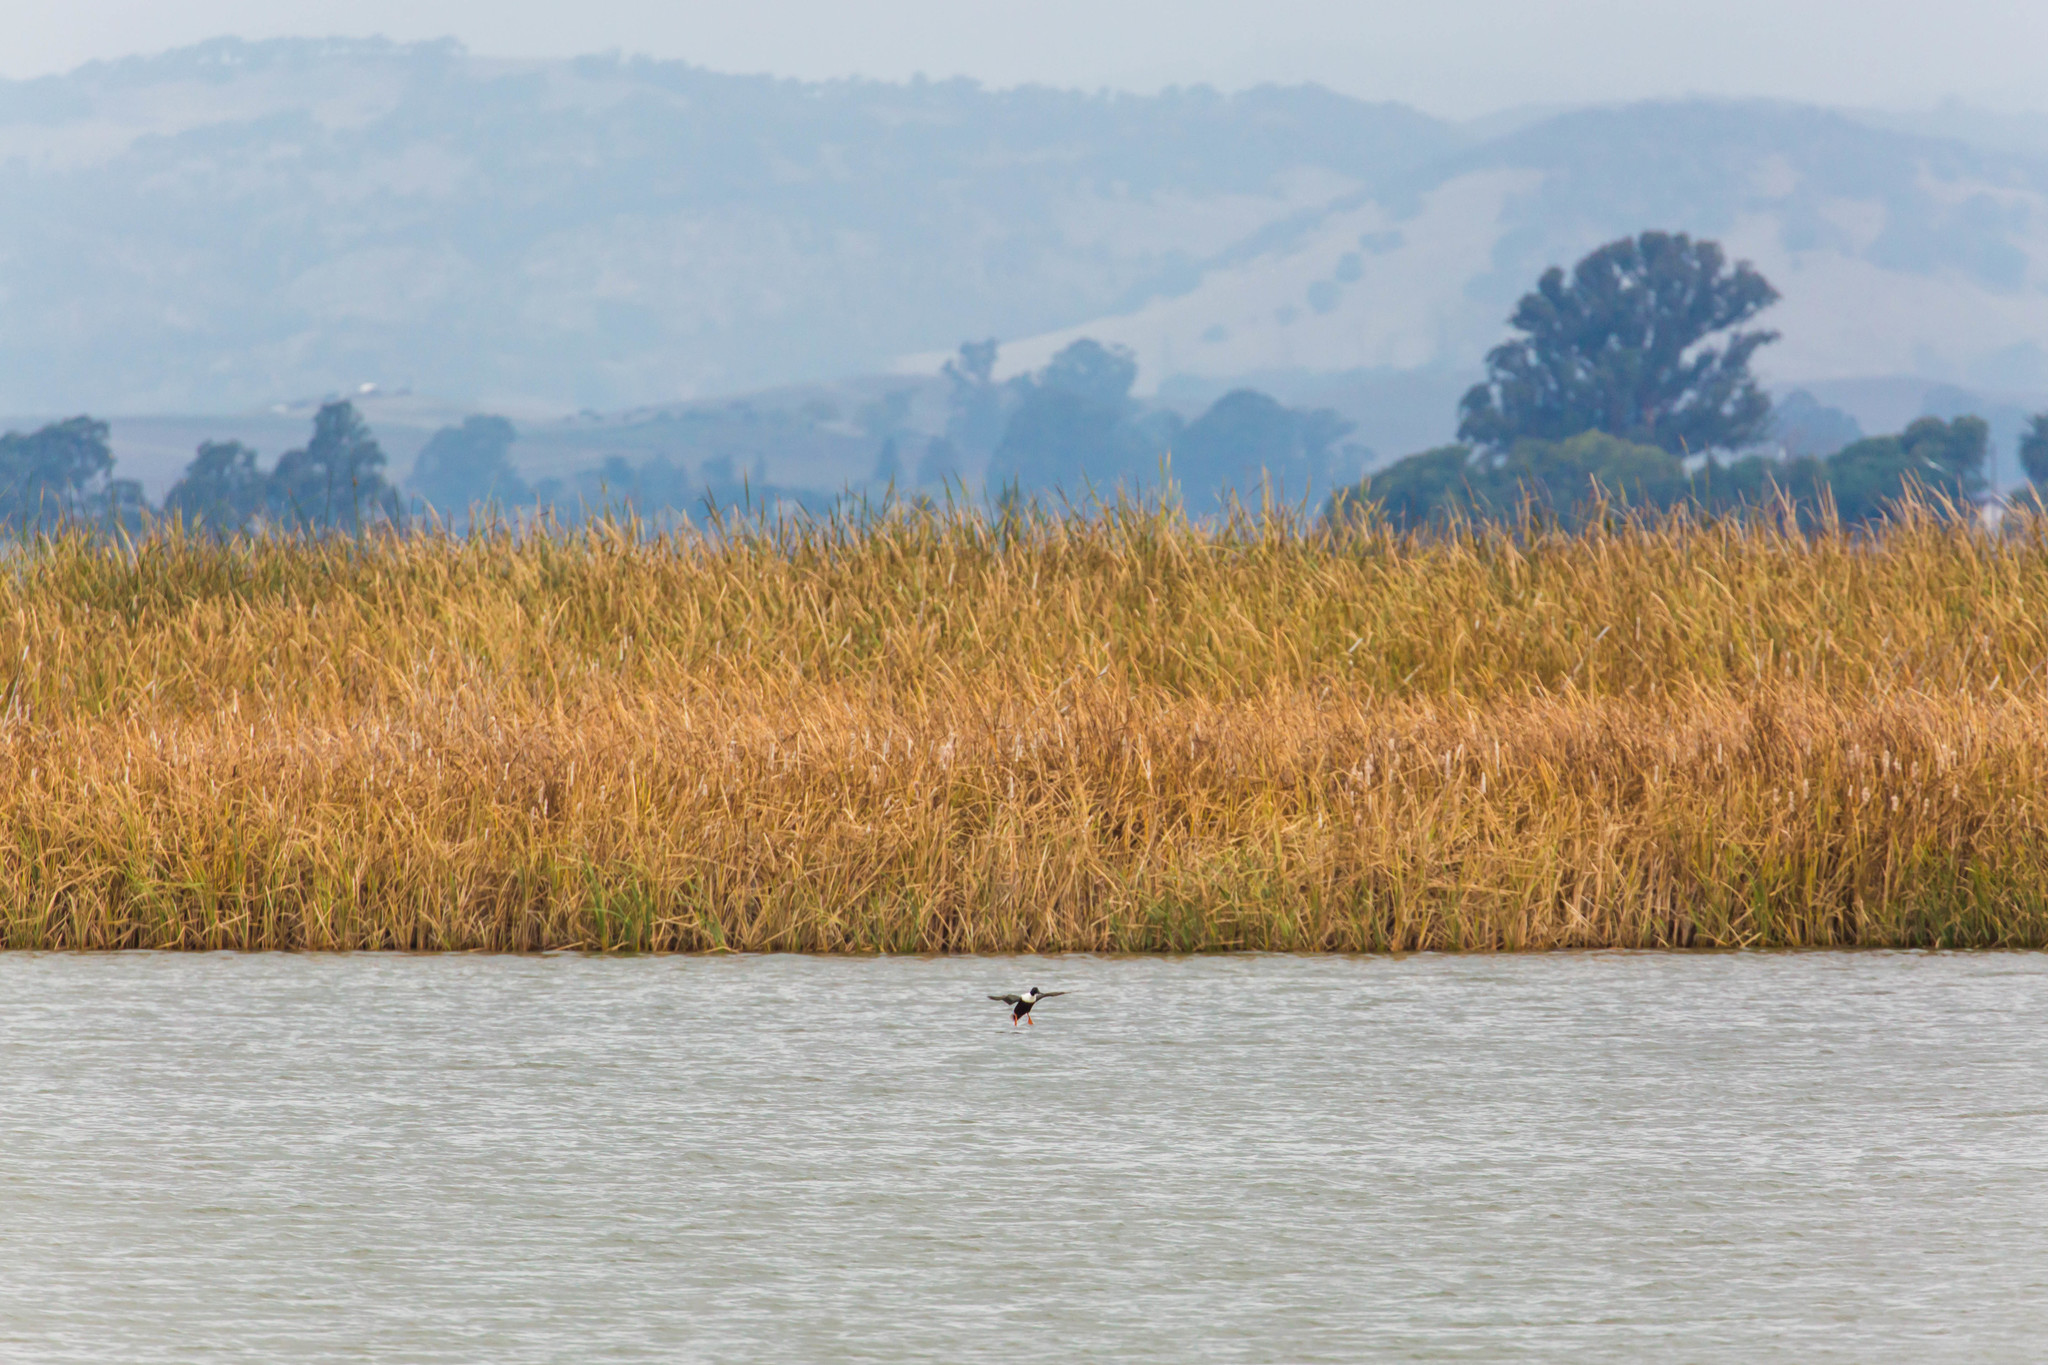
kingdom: Animalia
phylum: Chordata
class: Aves
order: Anseriformes
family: Anatidae
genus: Spatula
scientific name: Spatula clypeata
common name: Northern shoveler
